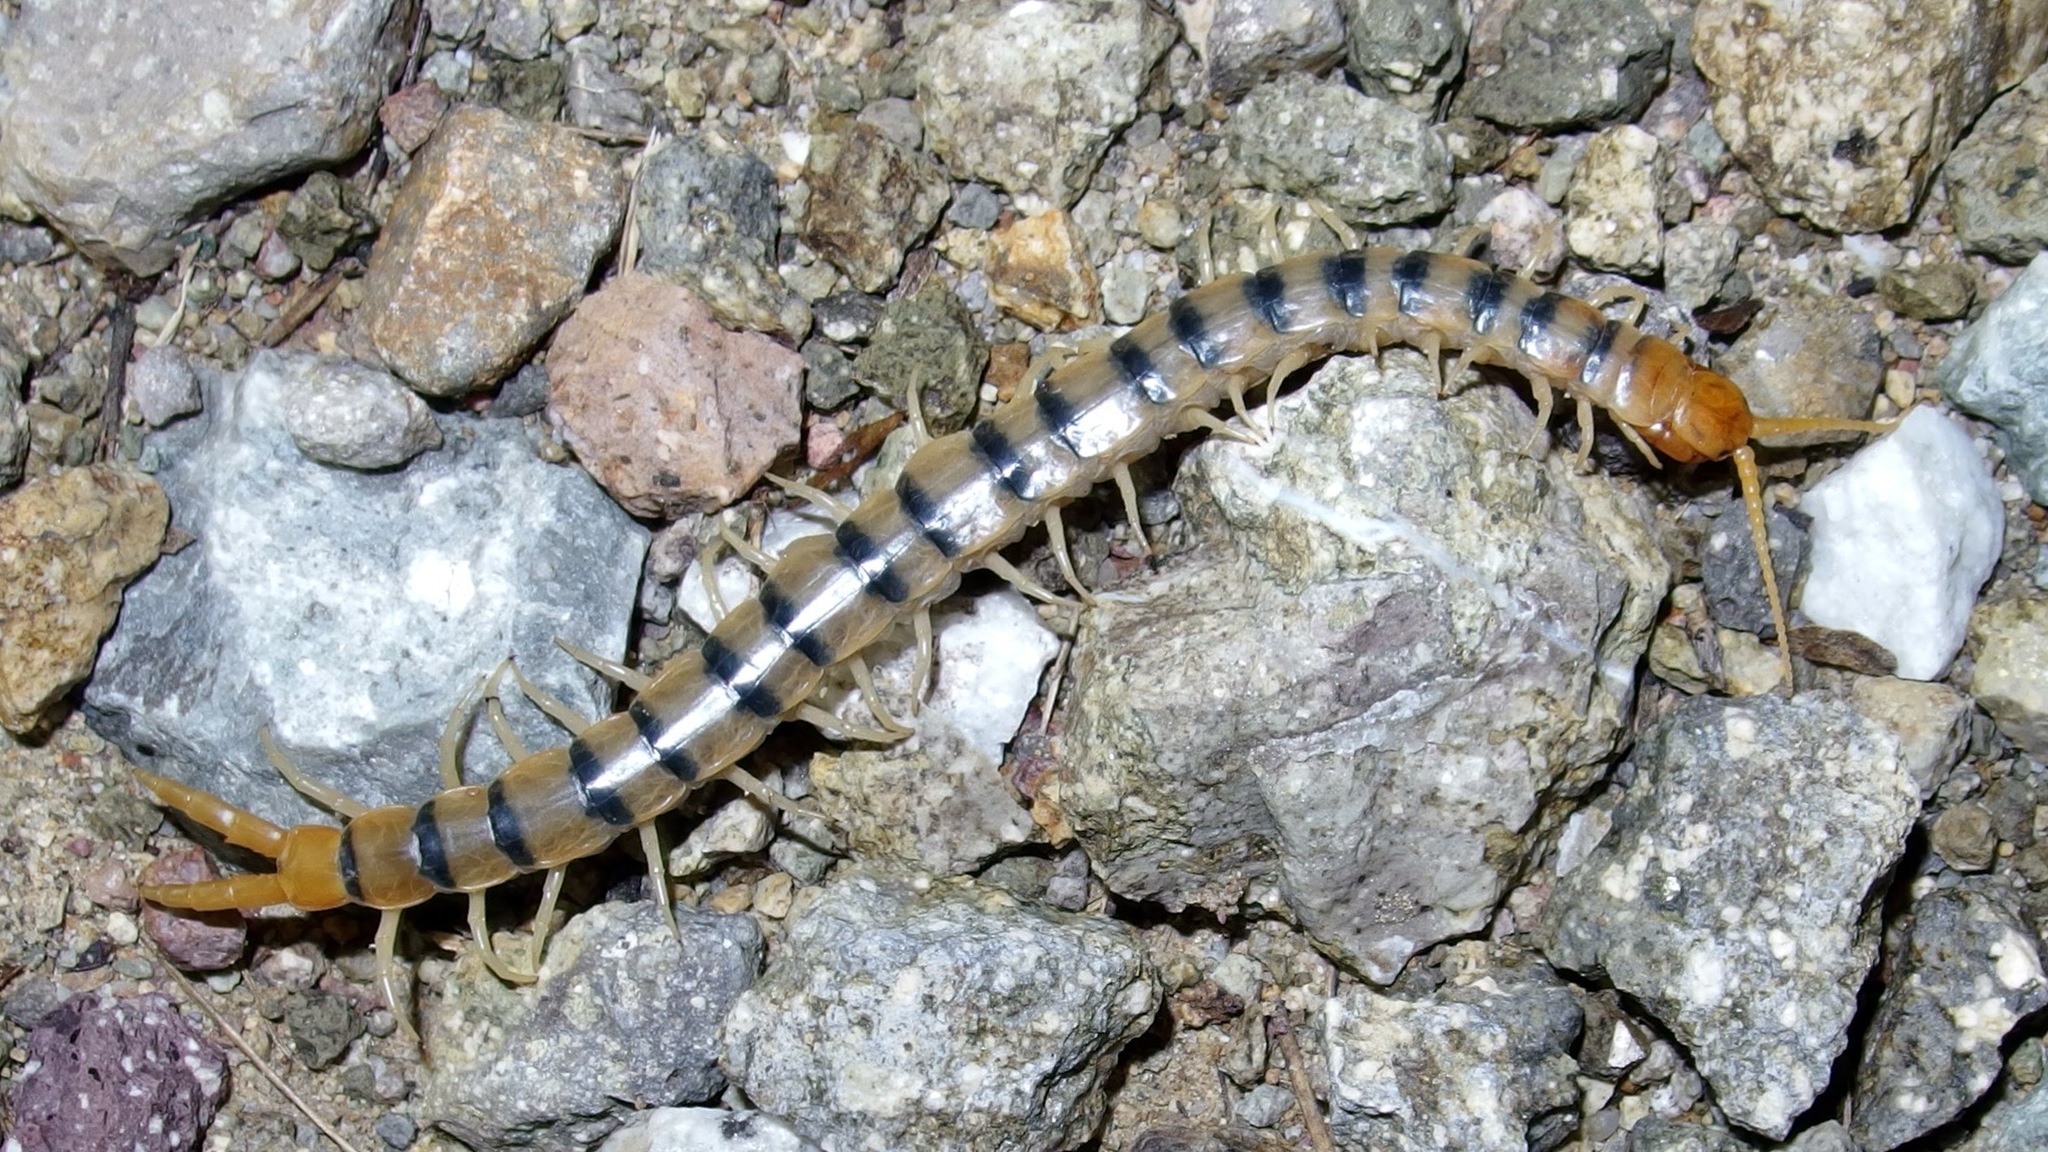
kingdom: Animalia
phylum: Arthropoda
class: Chilopoda
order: Scolopendromorpha
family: Scolopendridae
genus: Scolopendra
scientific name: Scolopendra polymorpha
